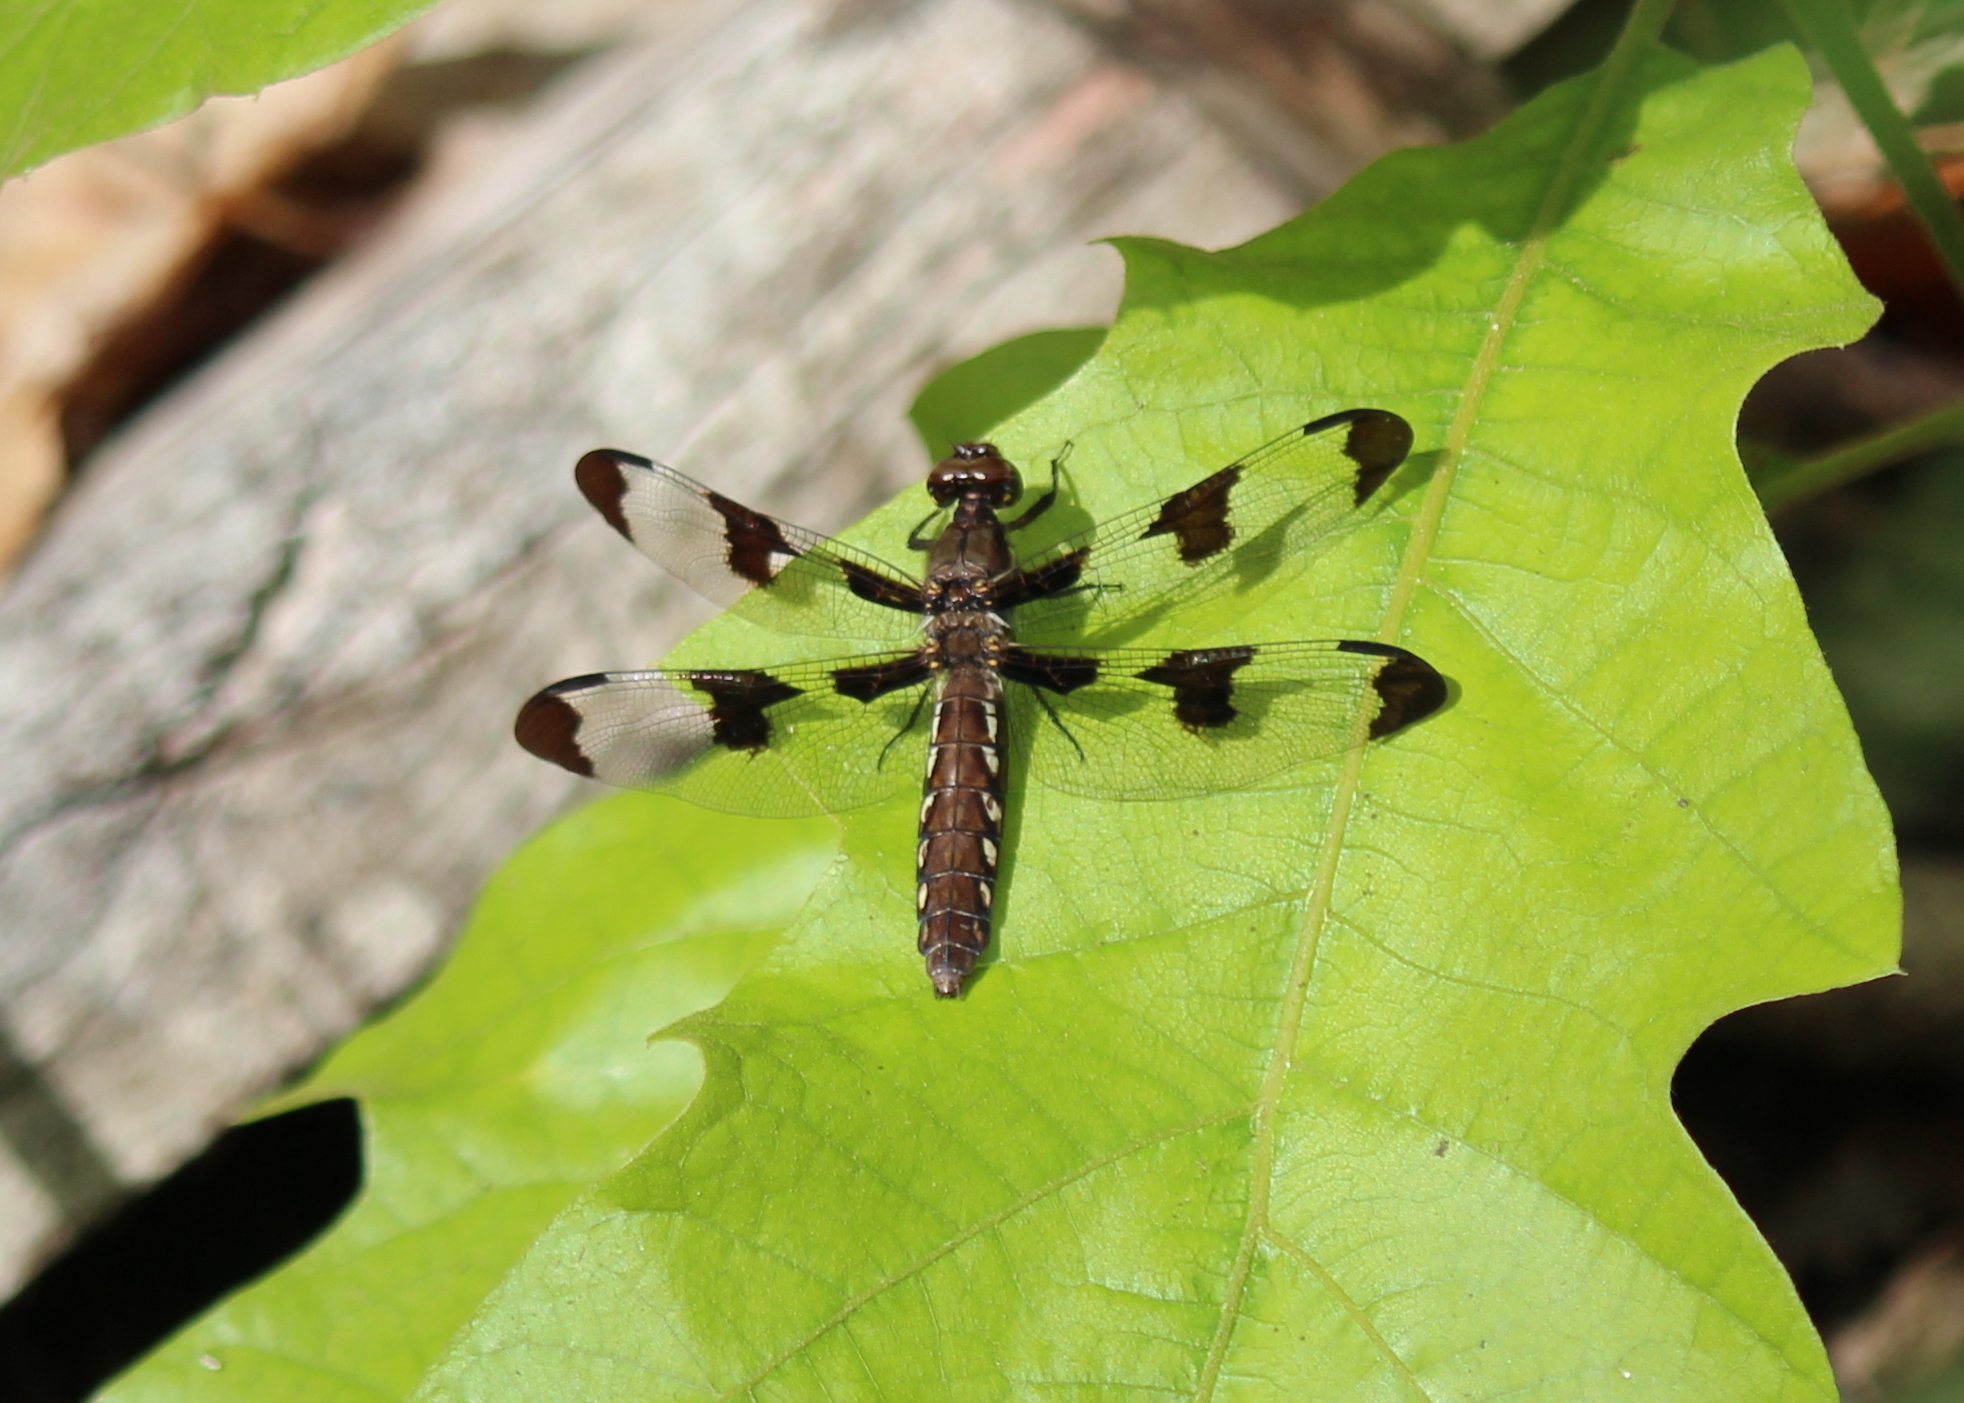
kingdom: Animalia
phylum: Arthropoda
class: Insecta
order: Odonata
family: Libellulidae
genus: Plathemis
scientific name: Plathemis lydia
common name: Common whitetail
